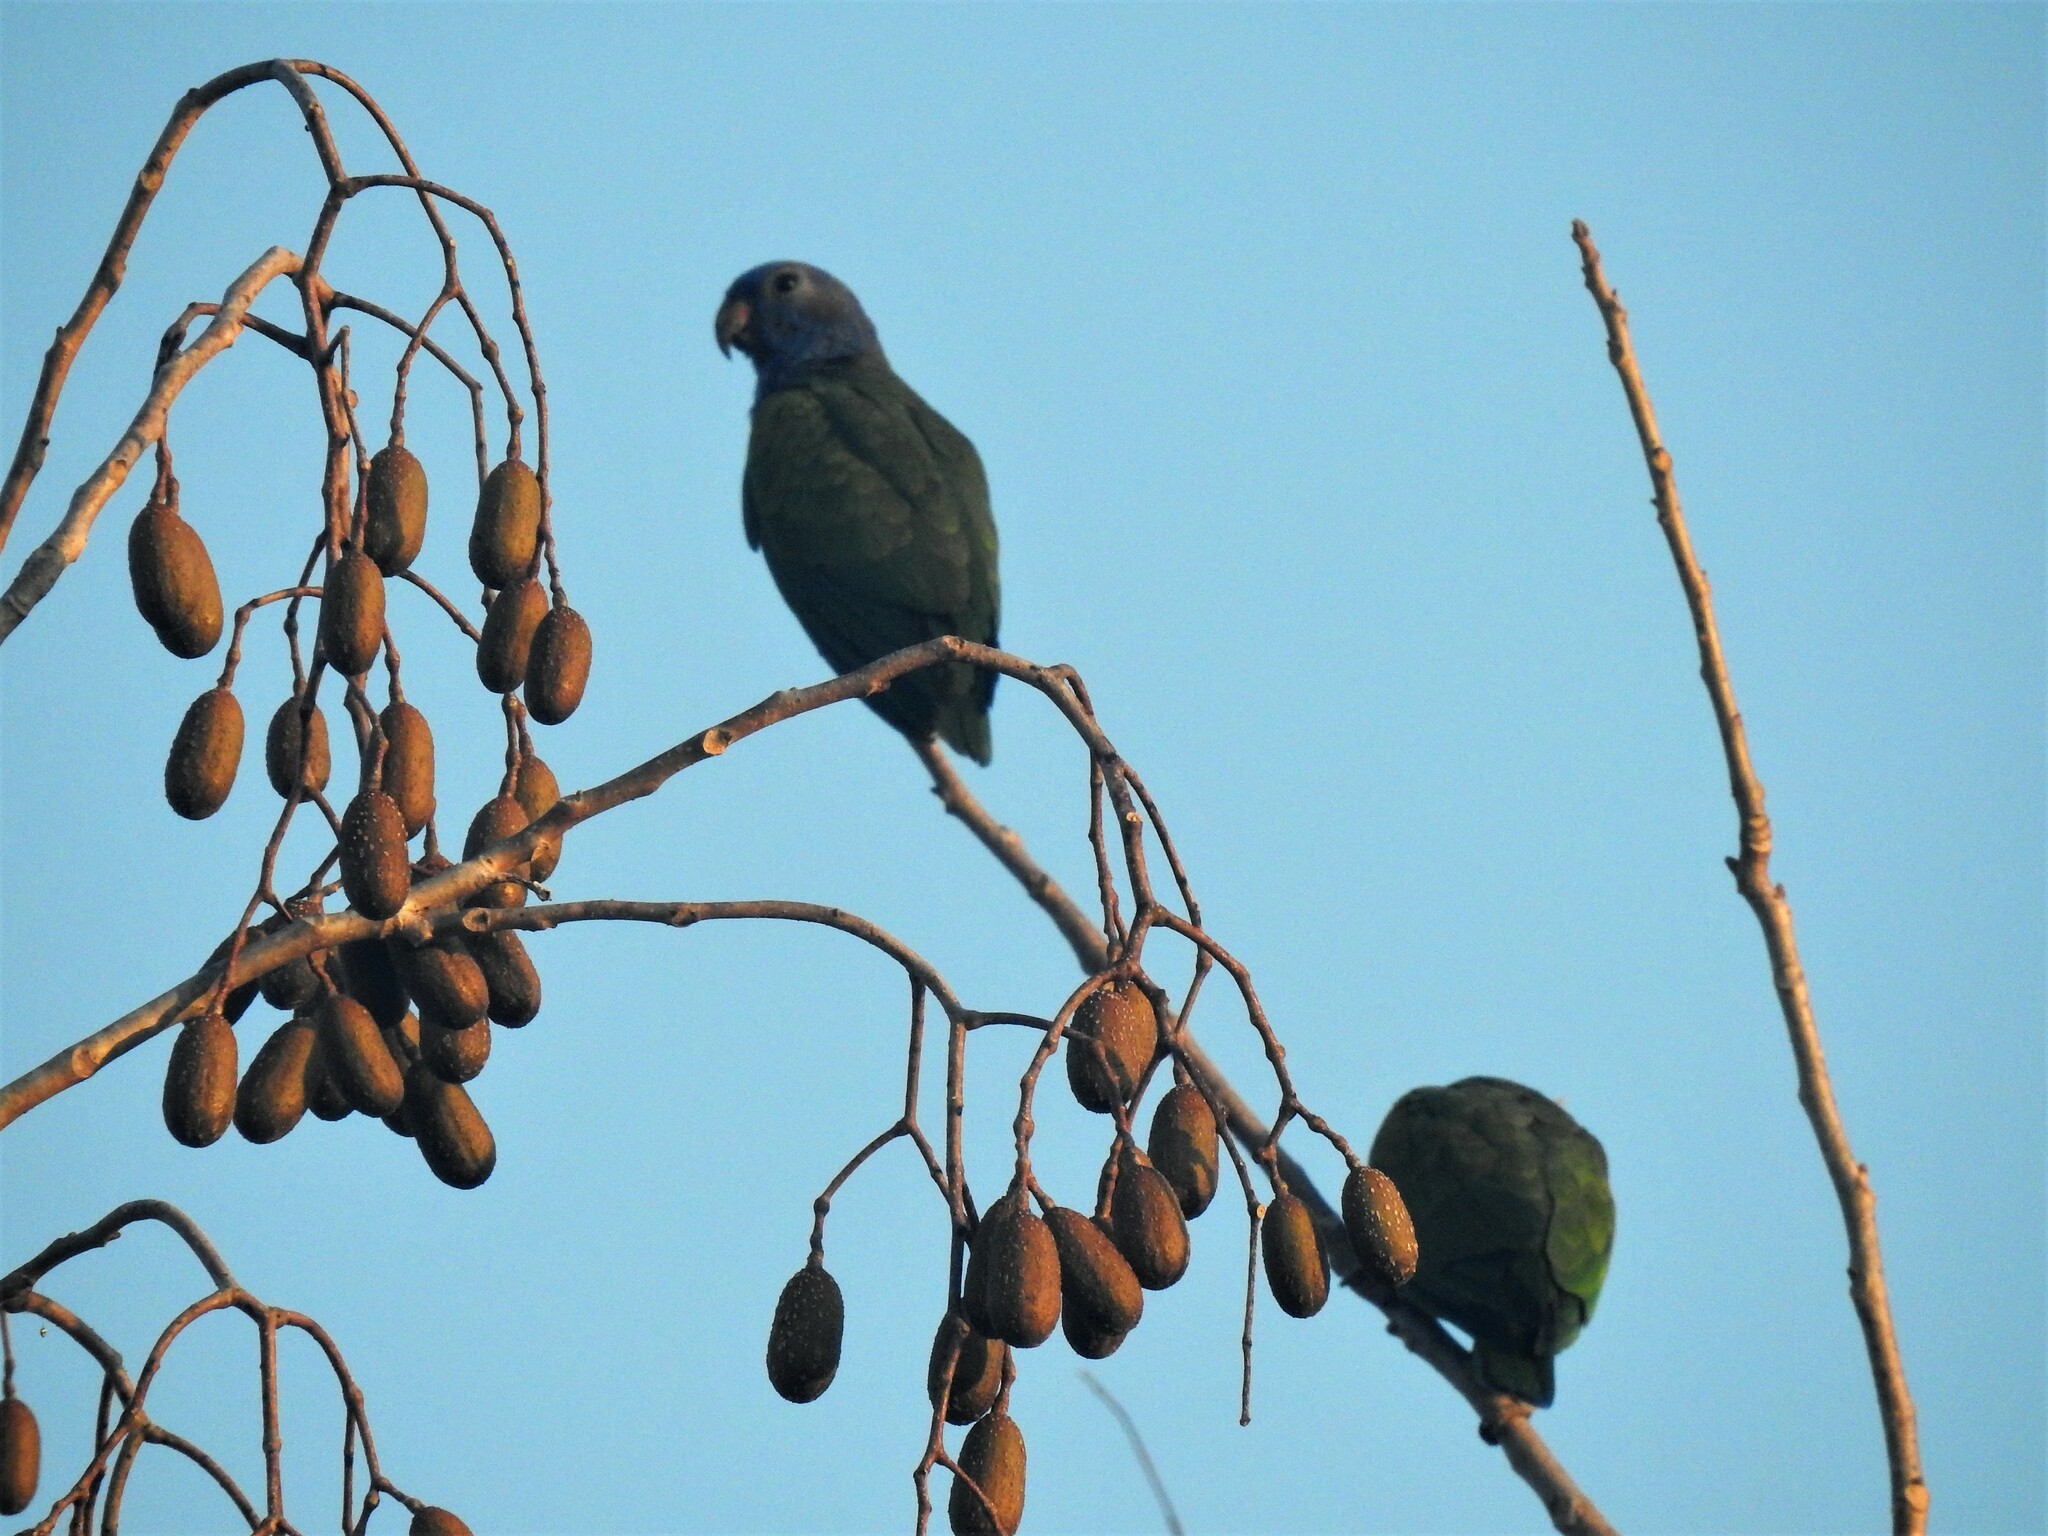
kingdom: Animalia
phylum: Chordata
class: Aves
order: Psittaciformes
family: Psittacidae
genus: Pionus
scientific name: Pionus menstruus
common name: Blue-headed parrot
